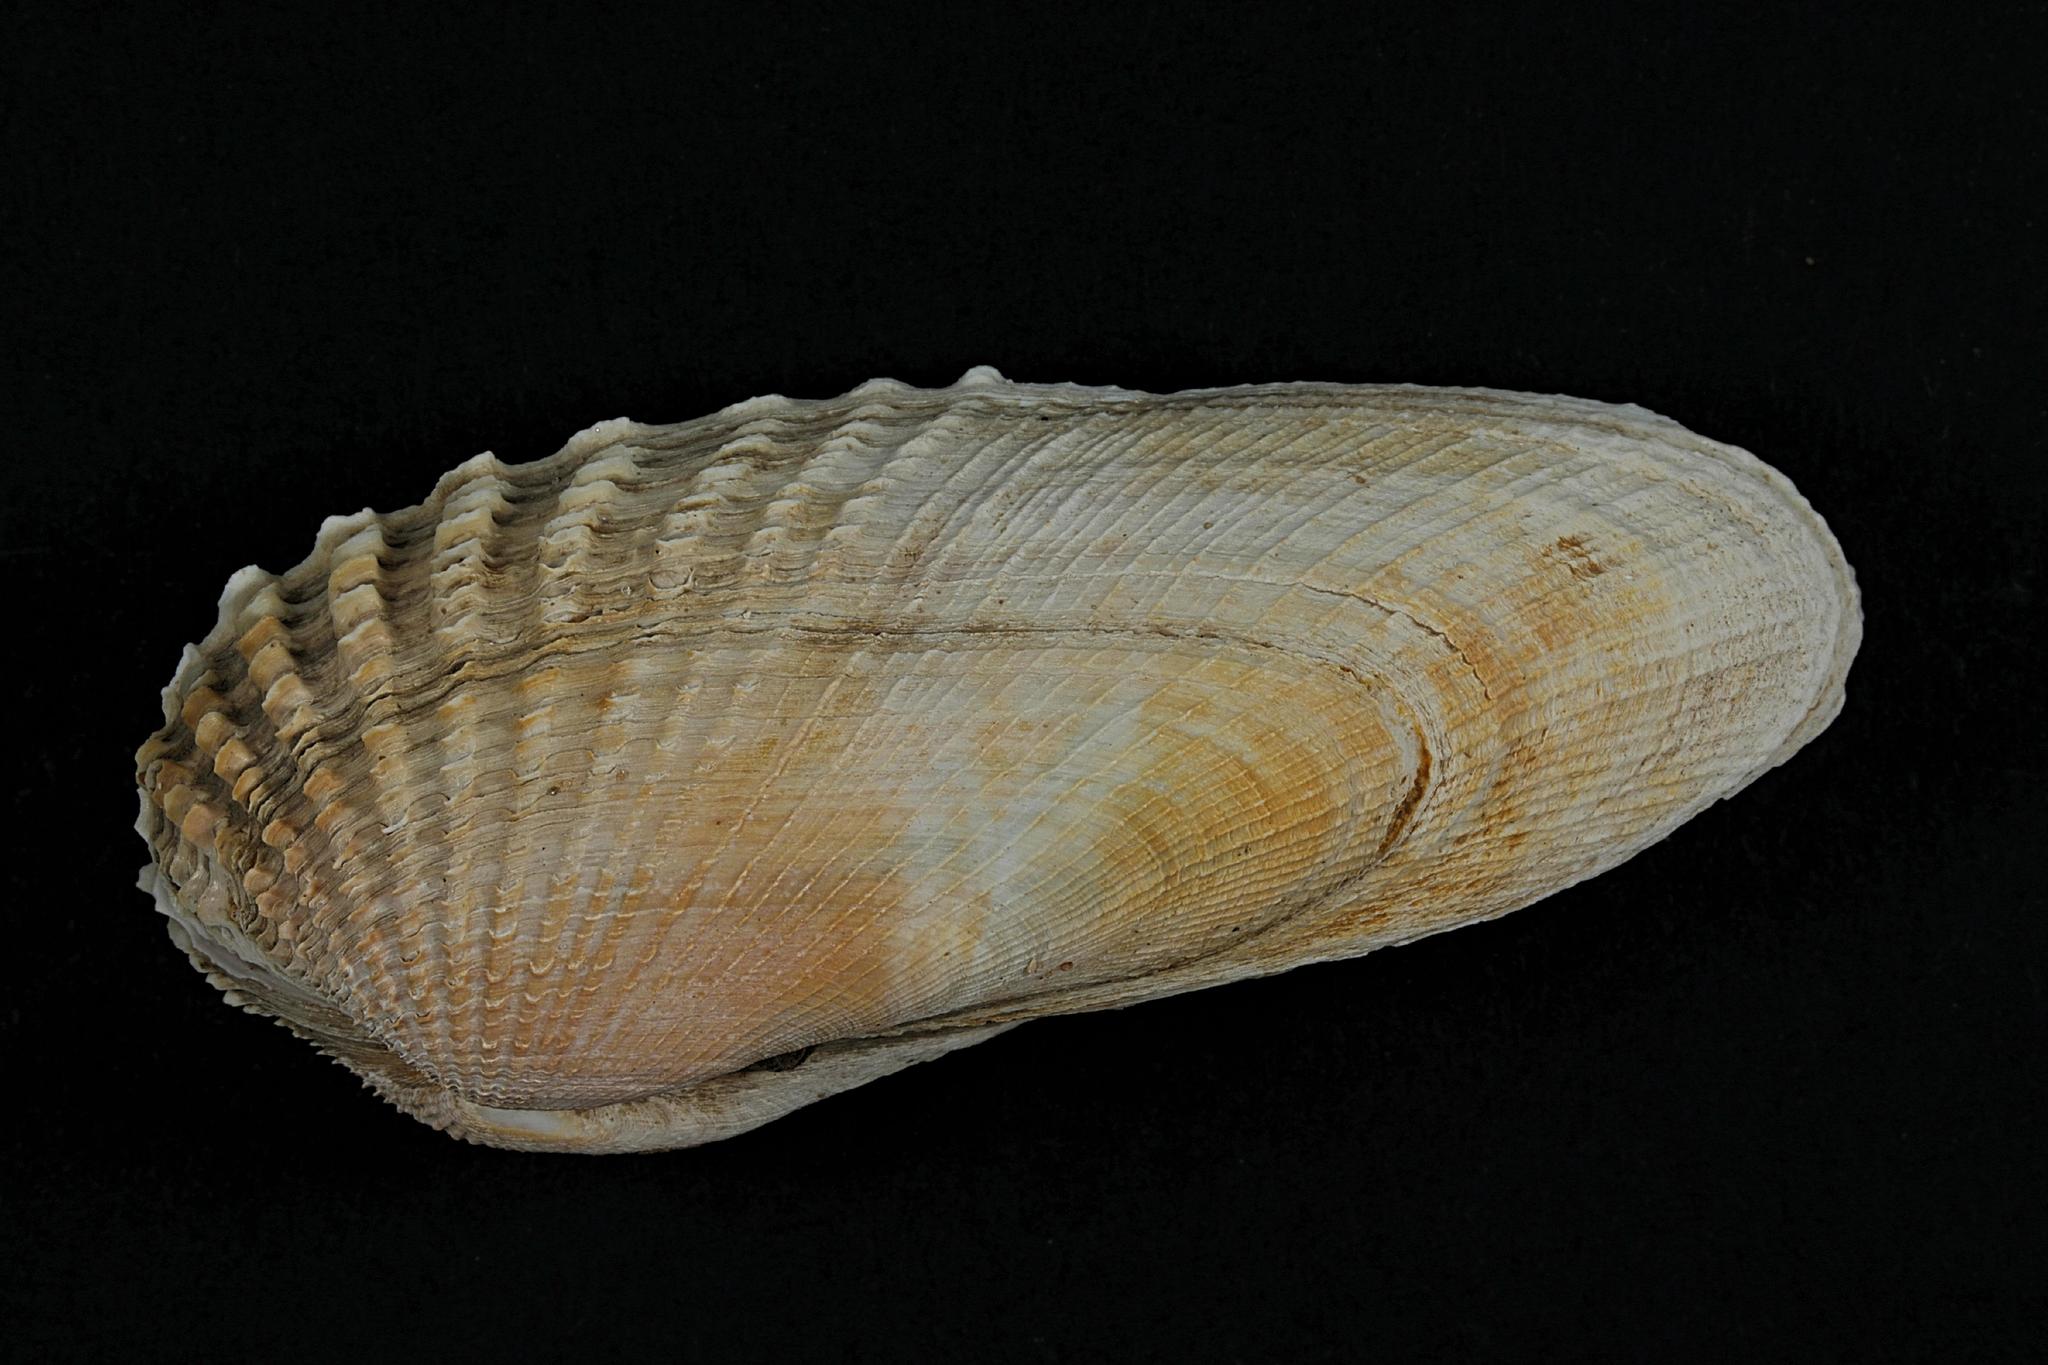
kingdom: Animalia
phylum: Mollusca
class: Bivalvia
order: Venerida
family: Veneridae
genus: Petricolaria
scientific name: Petricolaria pholadiformis
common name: American piddock
